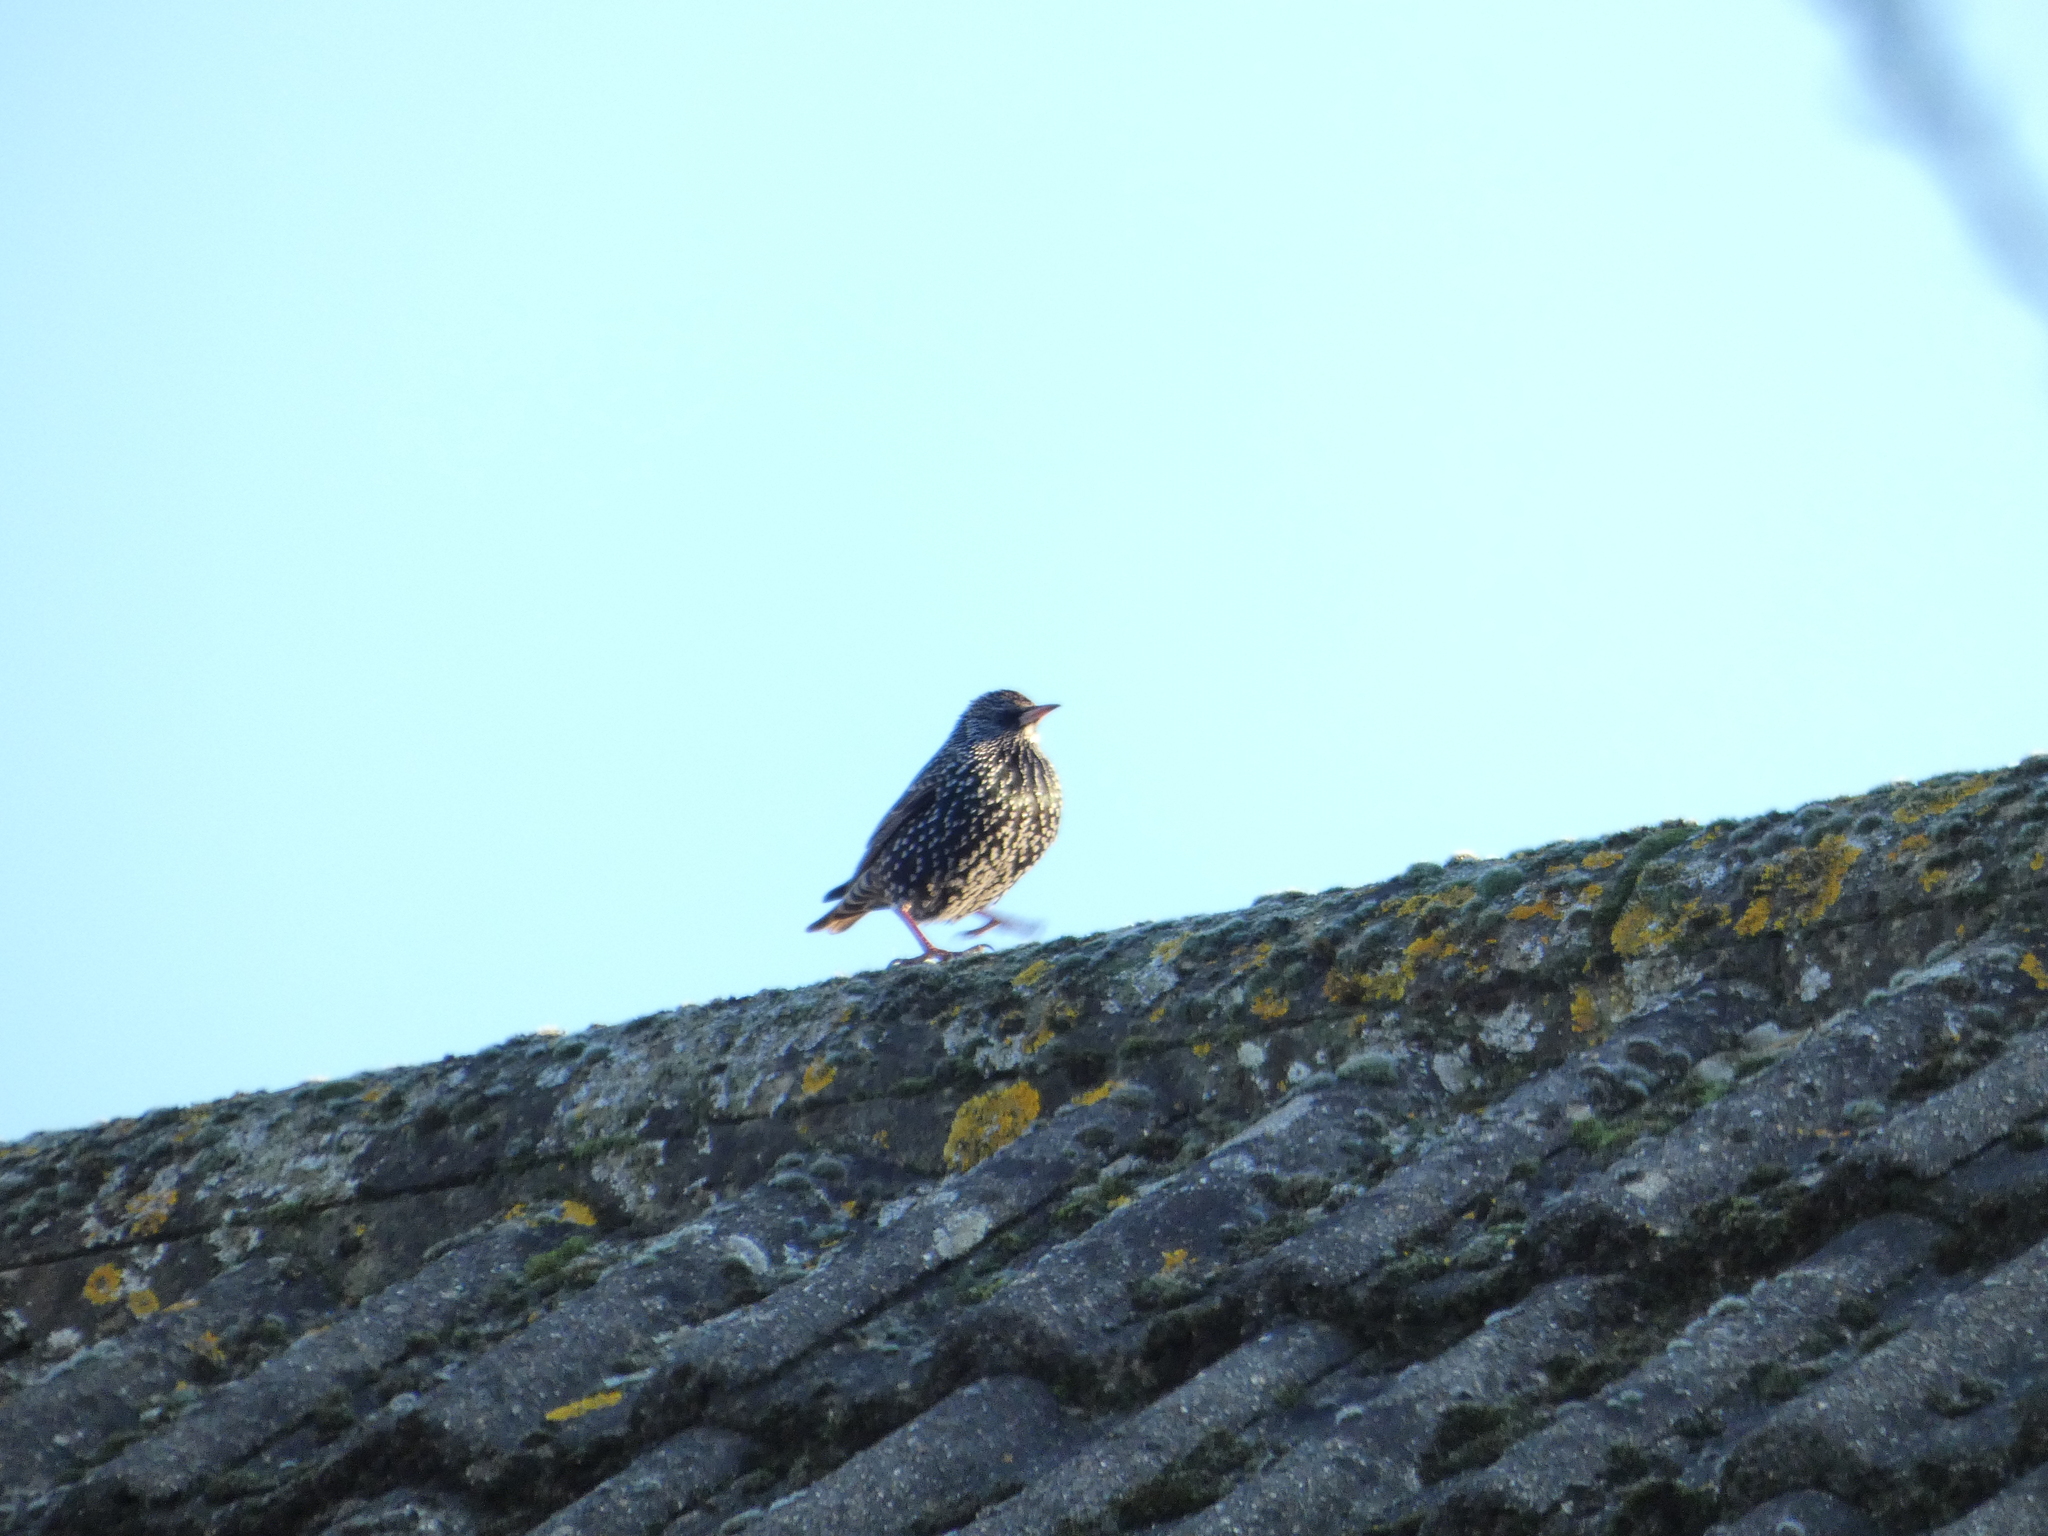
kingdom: Animalia
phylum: Chordata
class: Aves
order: Passeriformes
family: Sturnidae
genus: Sturnus
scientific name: Sturnus vulgaris
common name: Common starling
